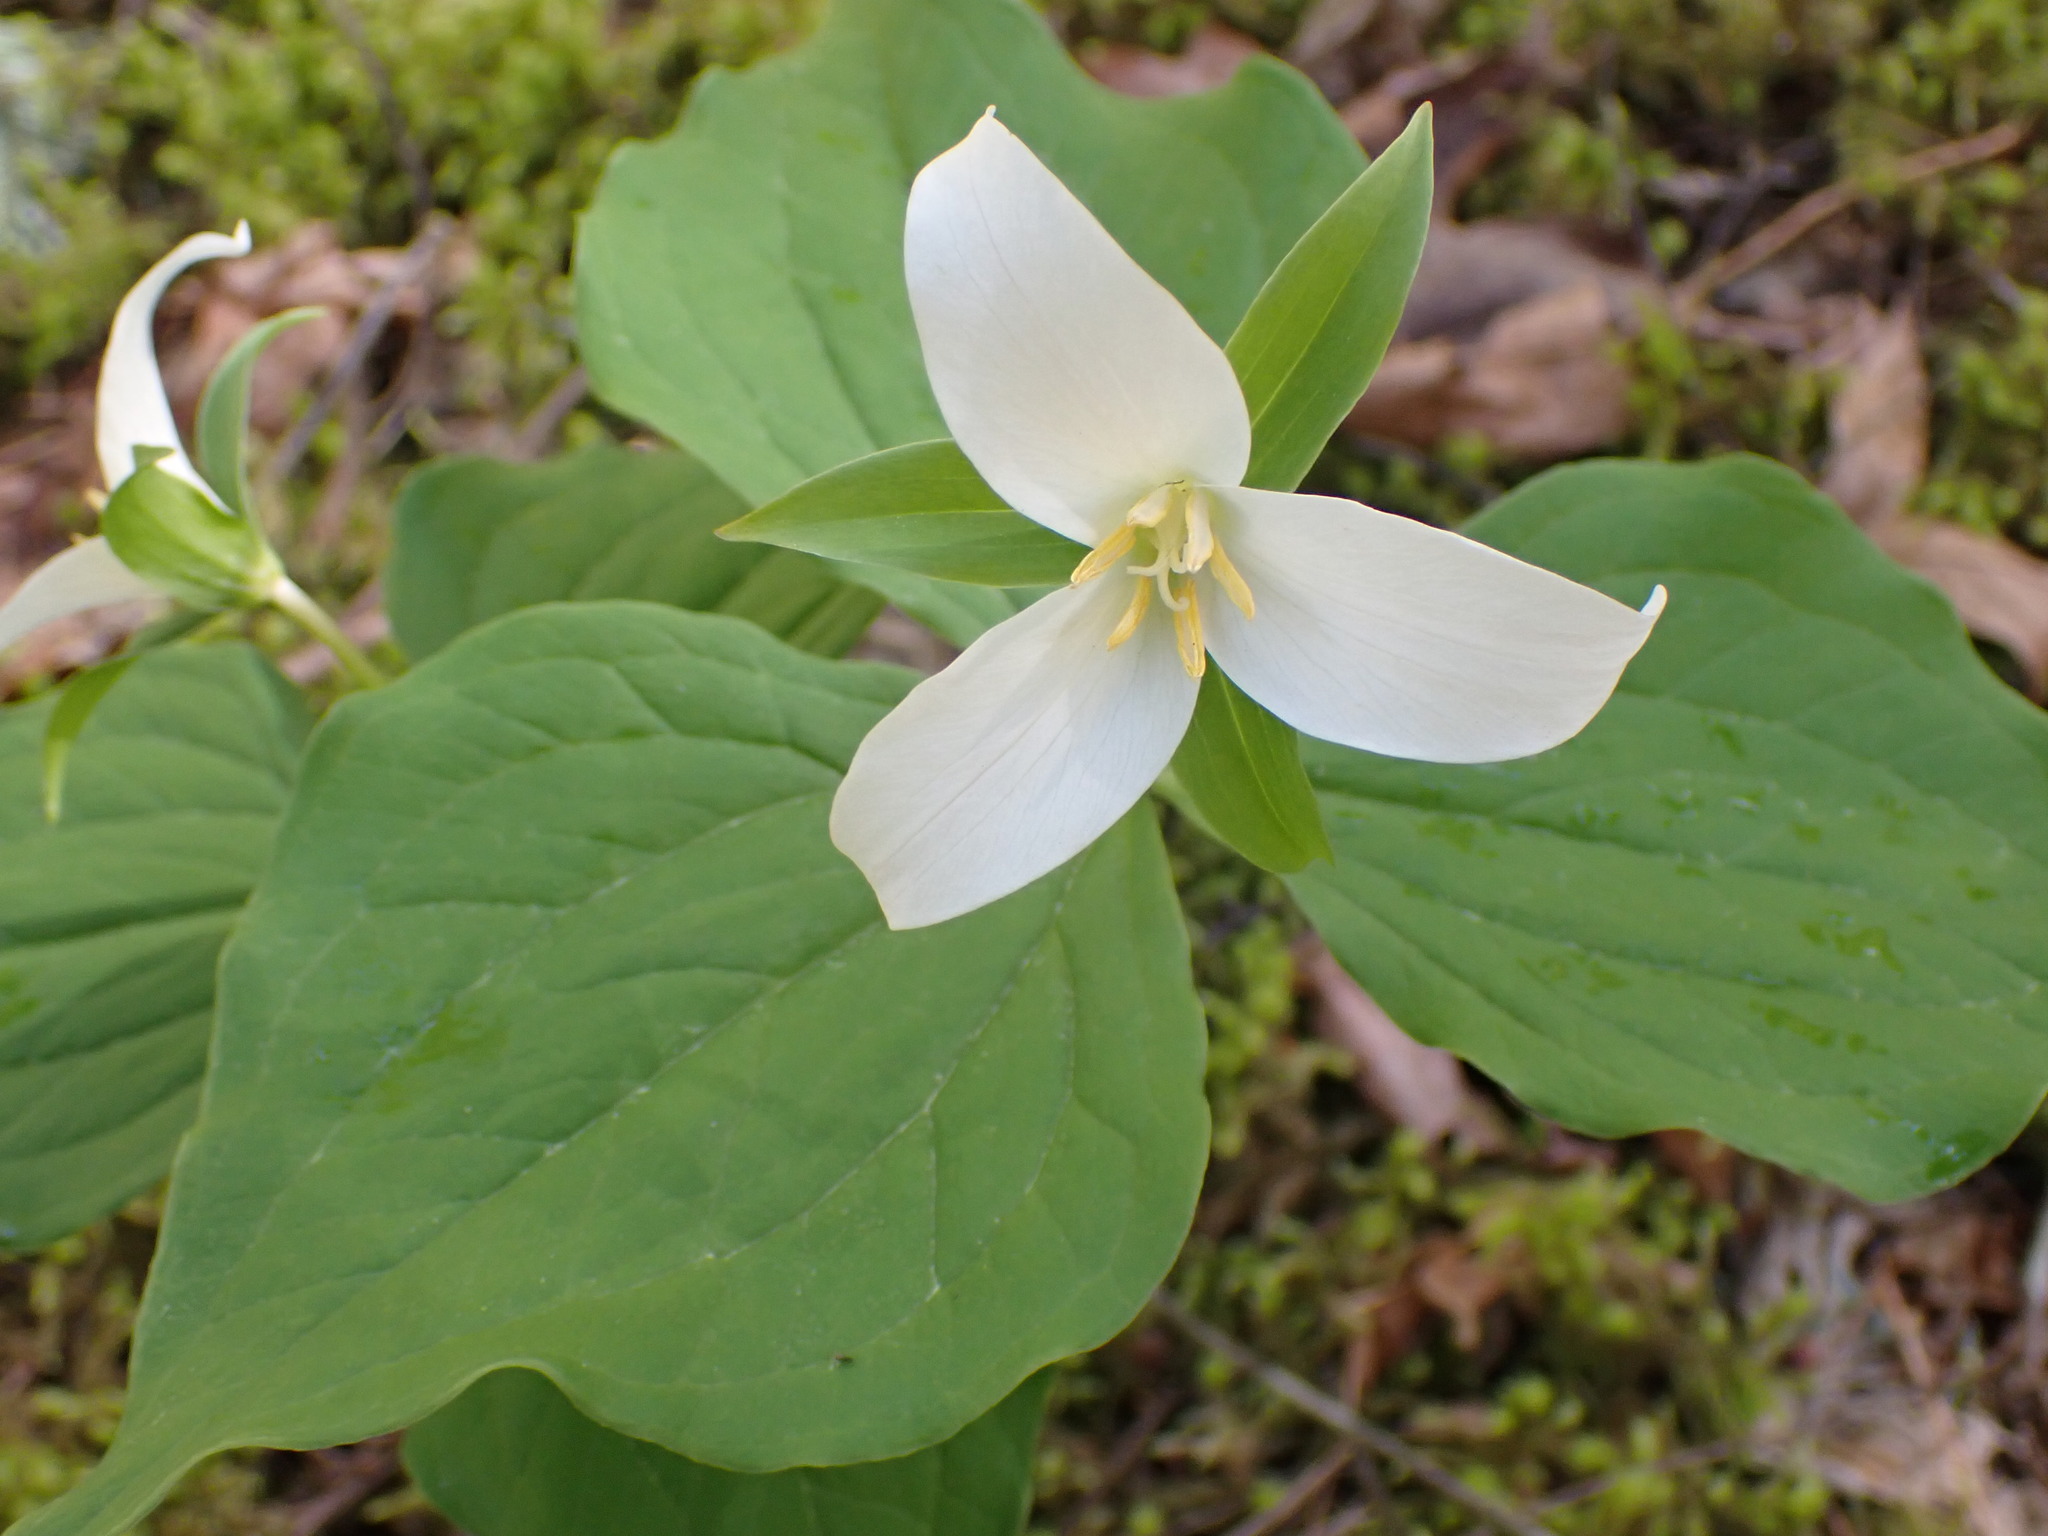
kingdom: Plantae
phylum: Tracheophyta
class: Liliopsida
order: Liliales
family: Melanthiaceae
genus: Trillium
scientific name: Trillium ovatum
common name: Pacific trillium
